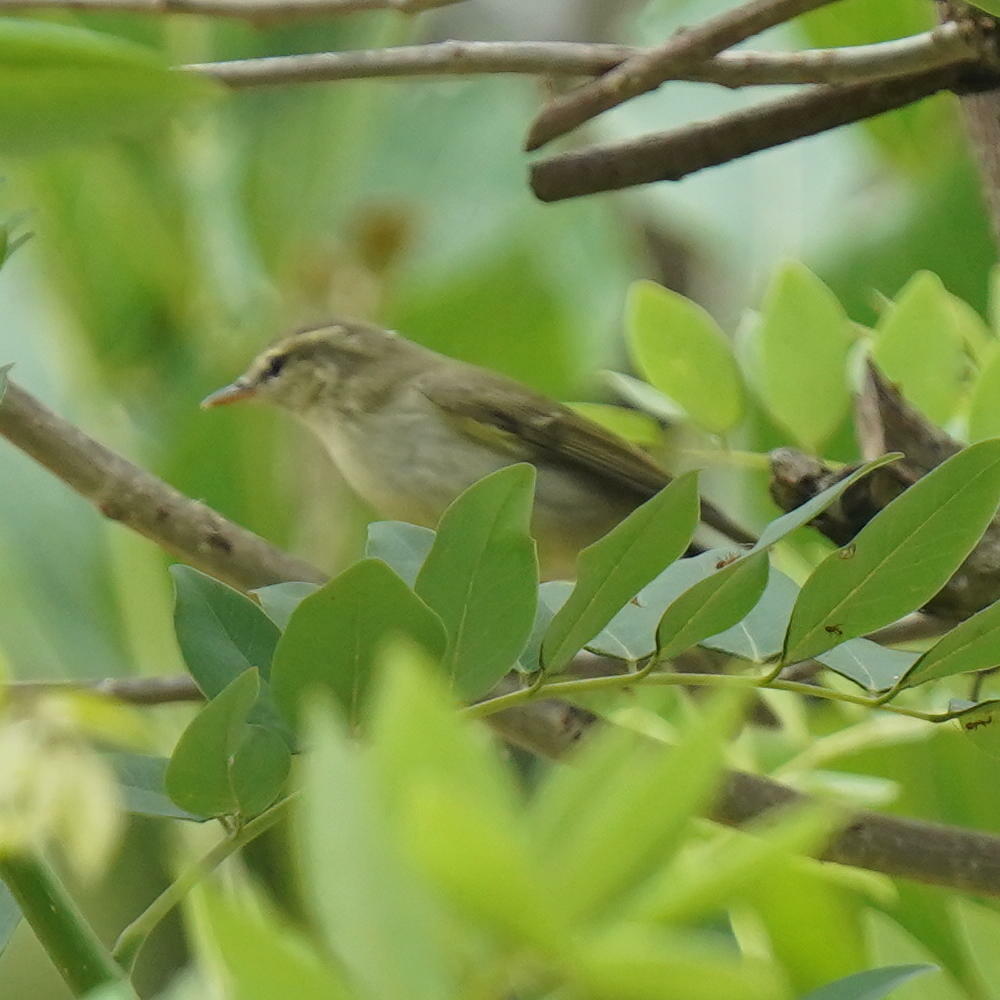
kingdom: Animalia
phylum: Chordata
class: Aves
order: Passeriformes
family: Phylloscopidae
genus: Phylloscopus
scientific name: Phylloscopus trochiloides
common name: Greenish warbler
